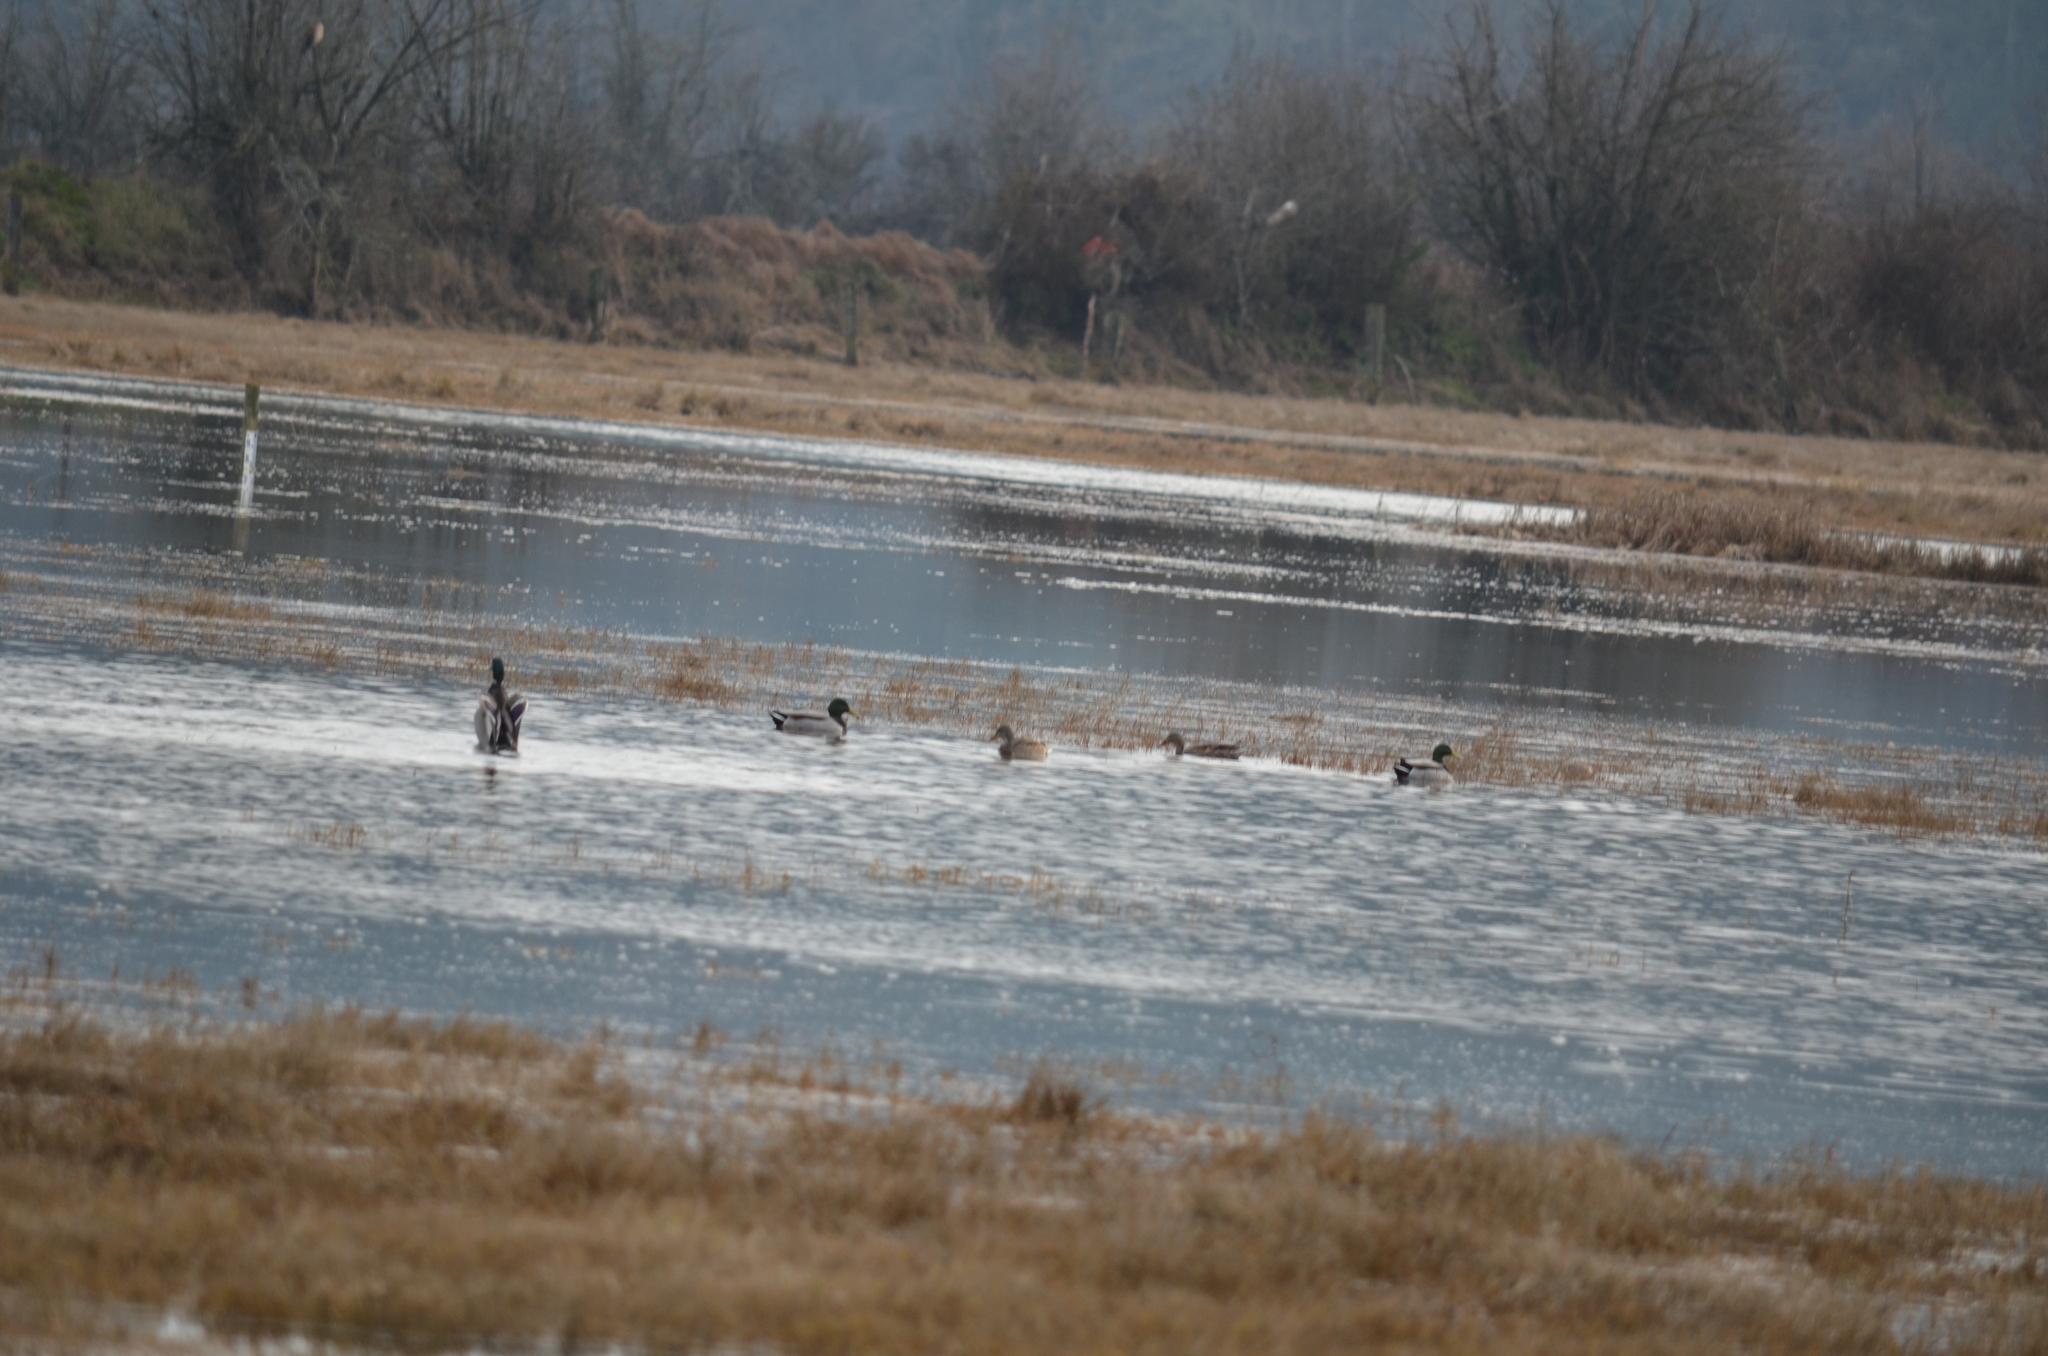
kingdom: Animalia
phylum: Chordata
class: Aves
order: Anseriformes
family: Anatidae
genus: Anas
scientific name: Anas platyrhynchos
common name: Mallard
